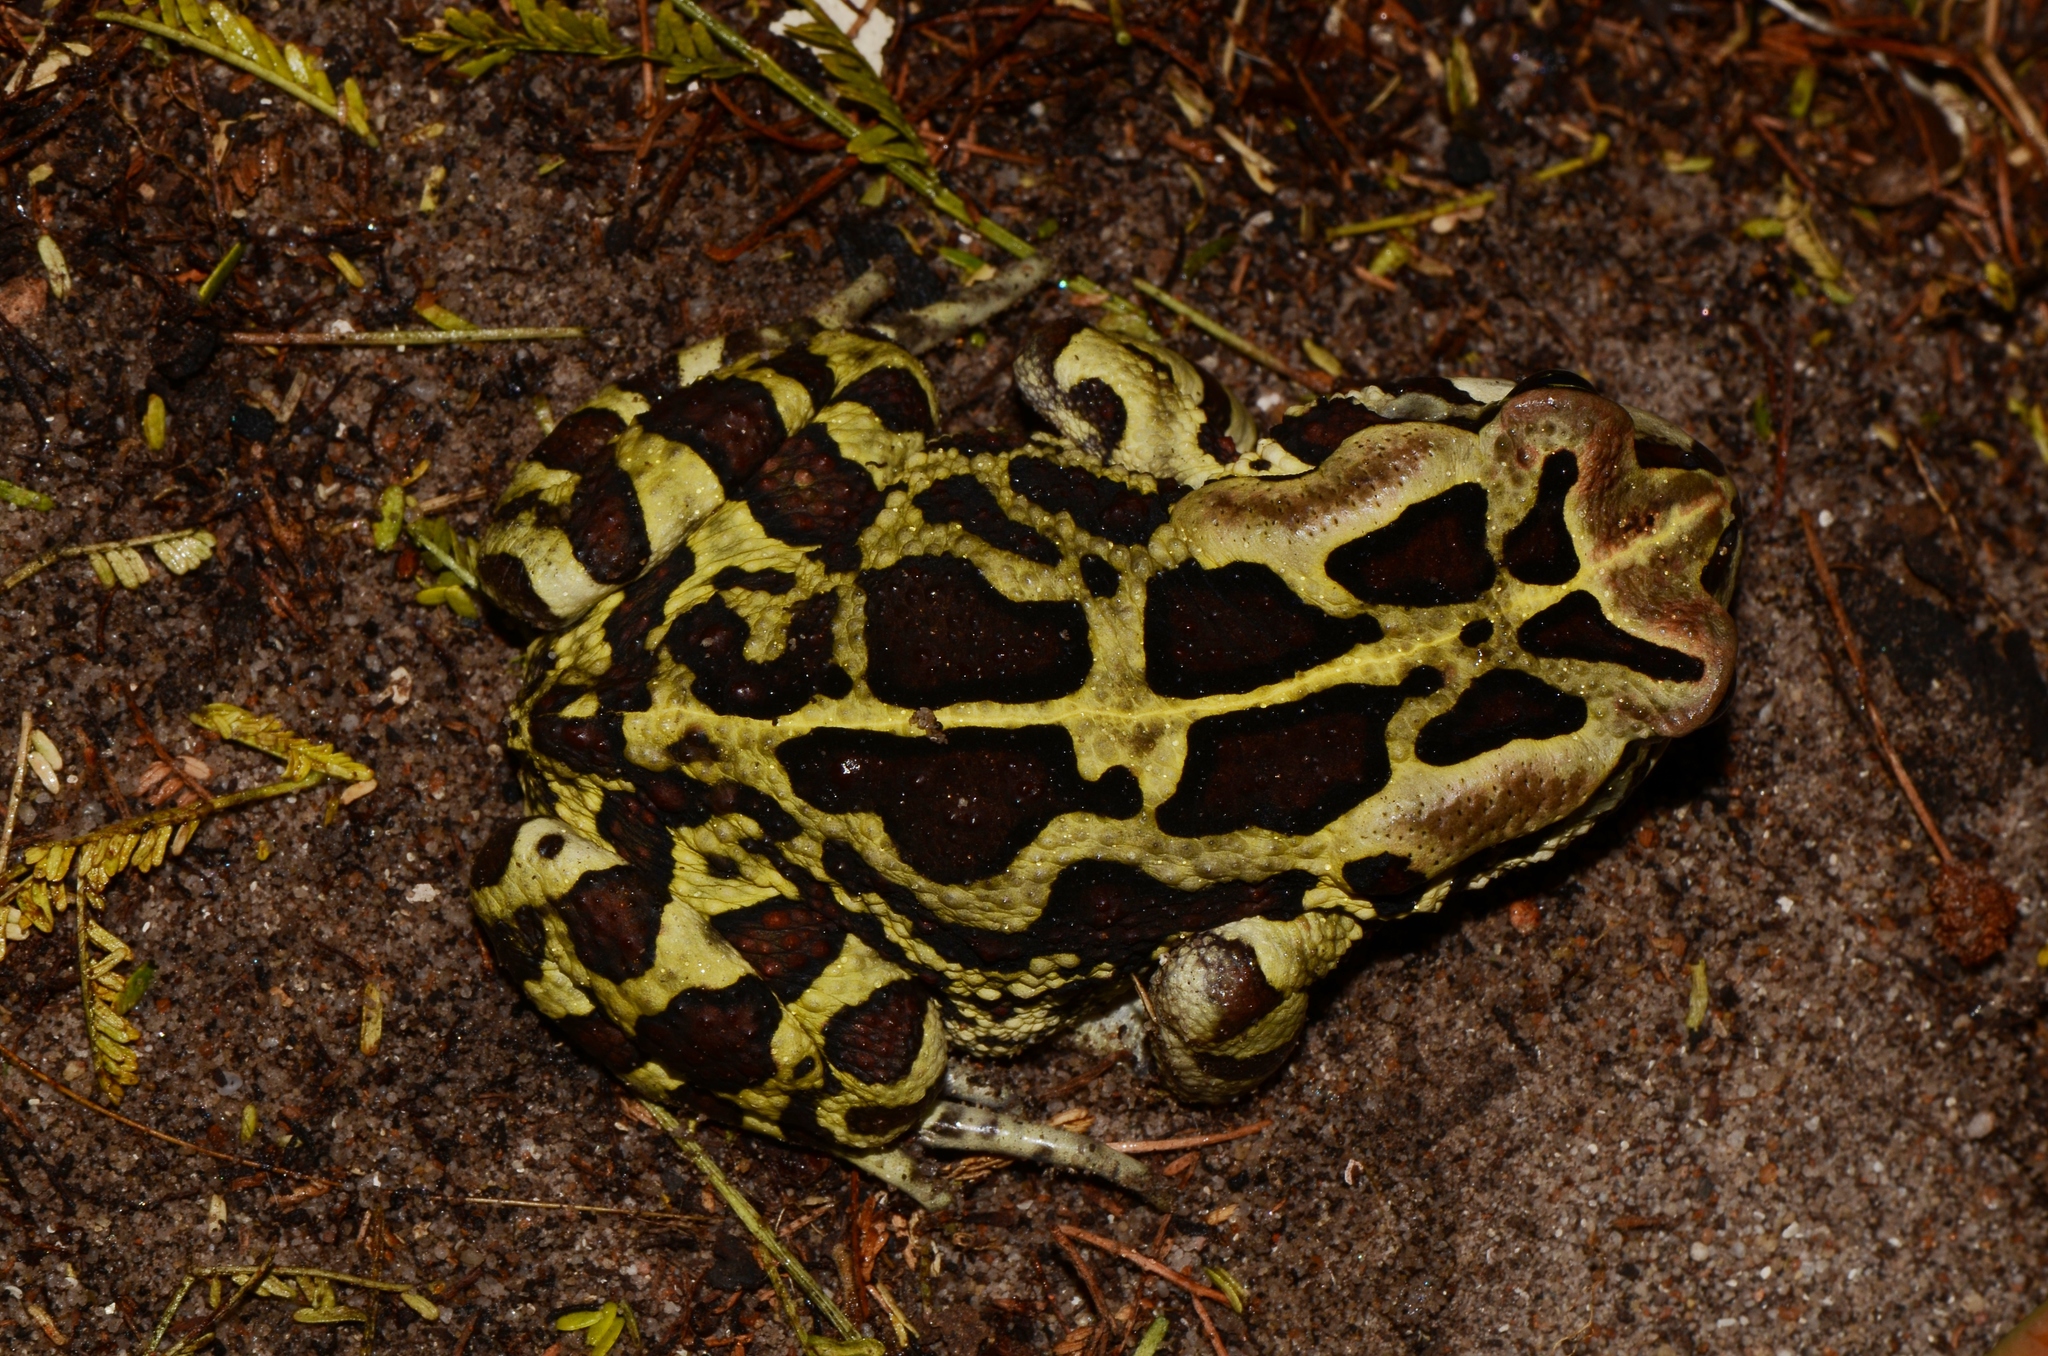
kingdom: Animalia
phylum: Chordata
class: Amphibia
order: Anura
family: Bufonidae
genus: Sclerophrys
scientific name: Sclerophrys pantherina
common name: Panther toad
